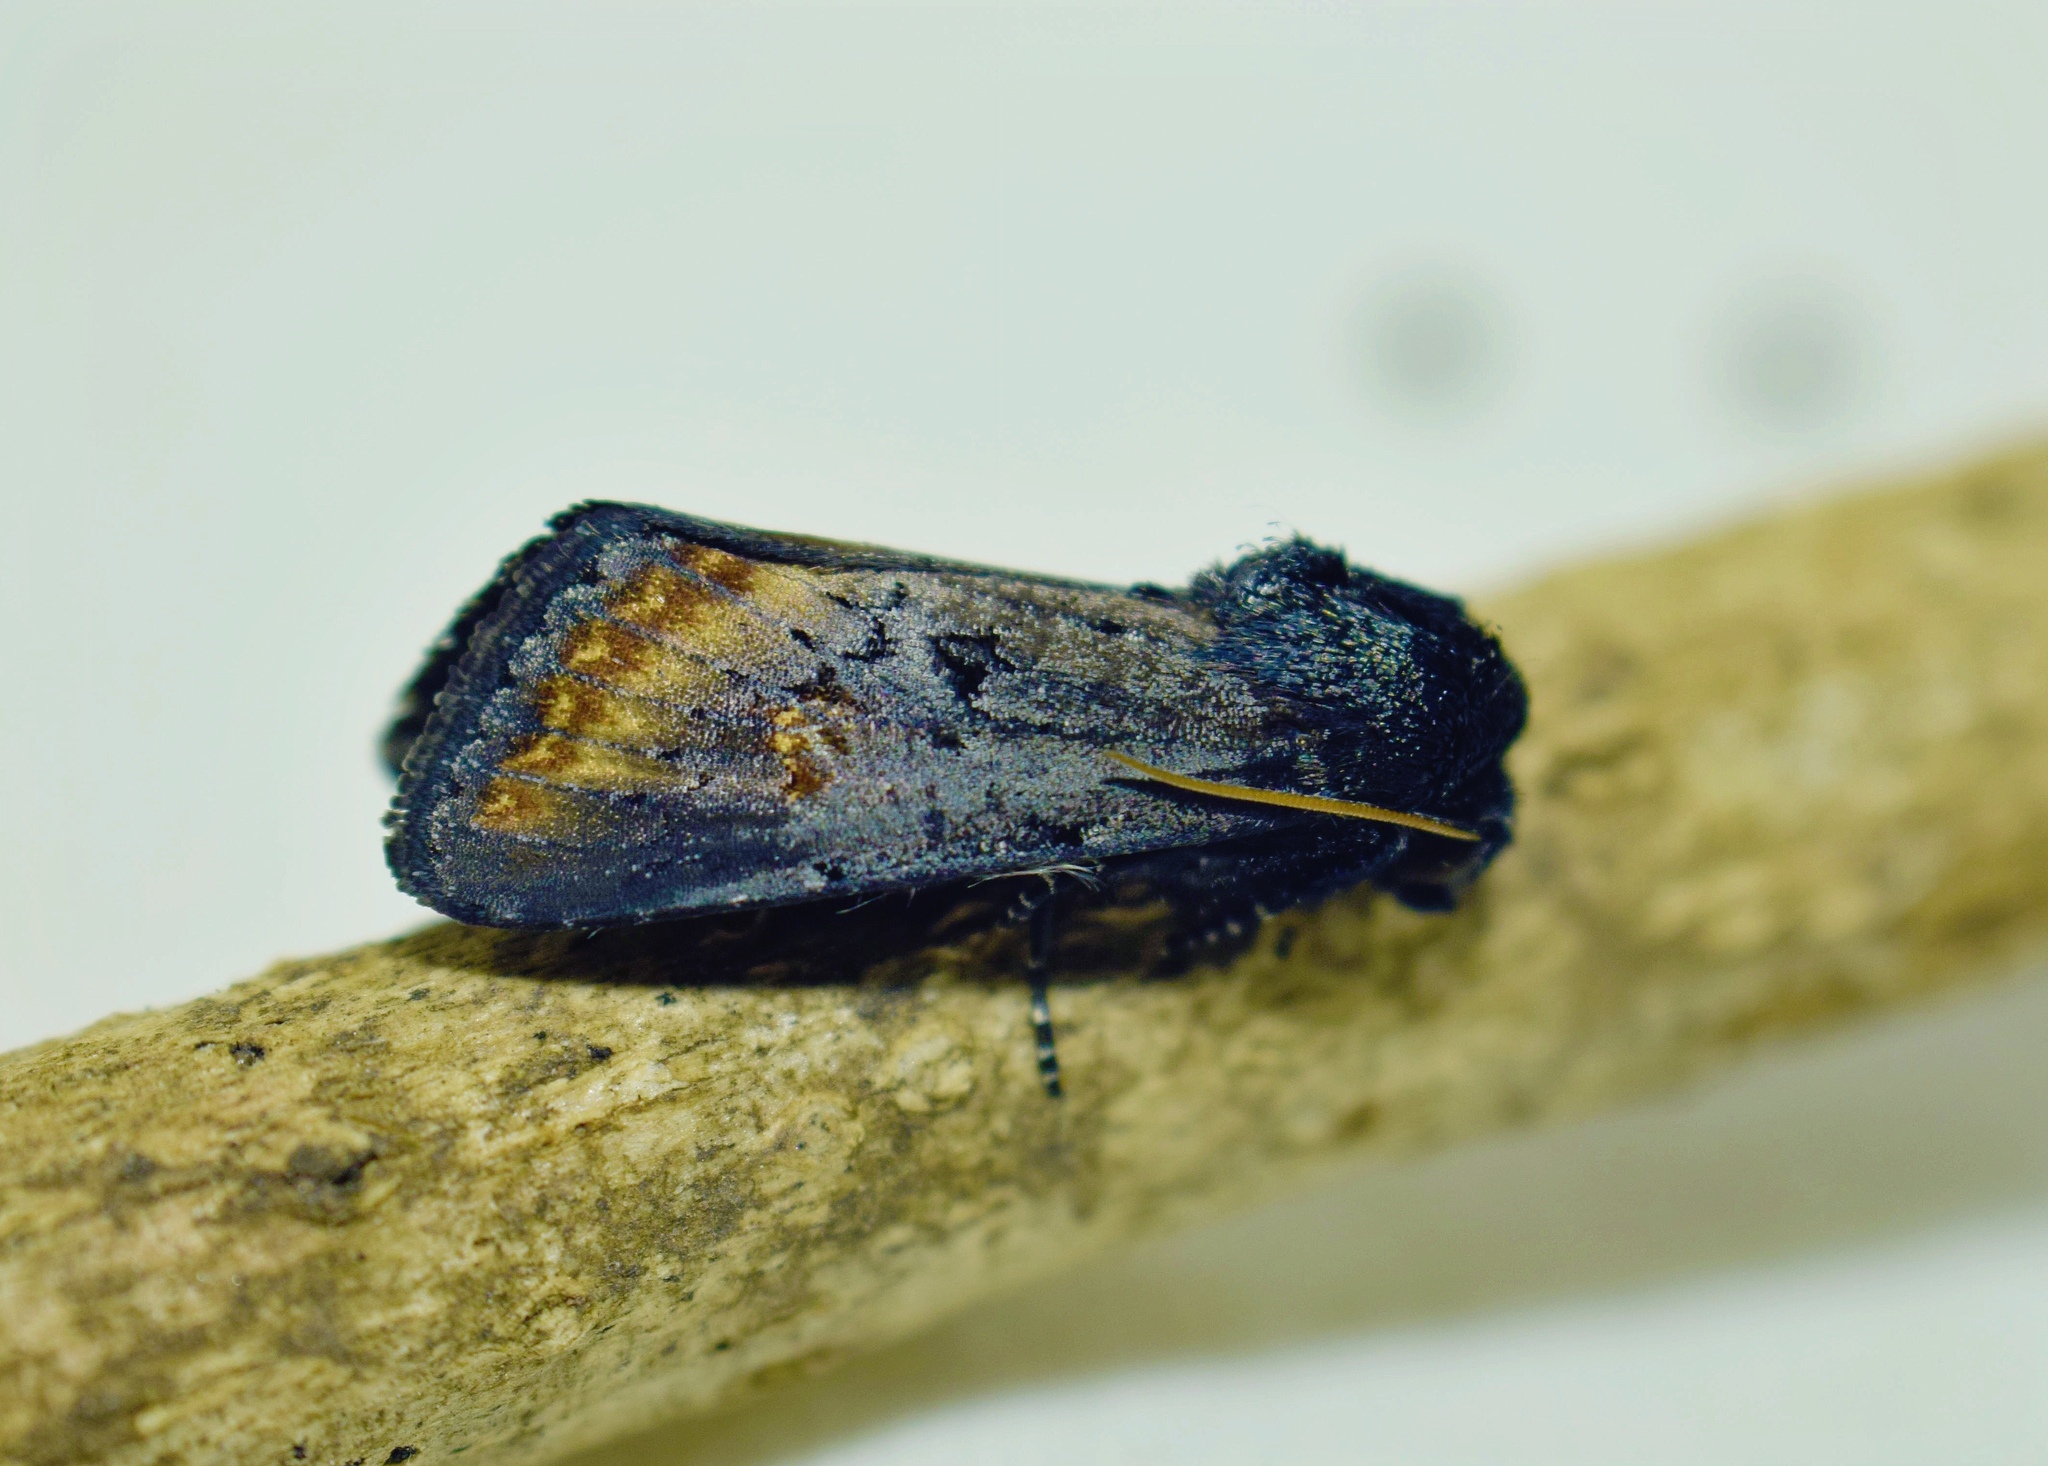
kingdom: Animalia
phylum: Arthropoda
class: Insecta
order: Lepidoptera
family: Noctuidae
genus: Brithys
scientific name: Brithys crini
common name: Kew arches
